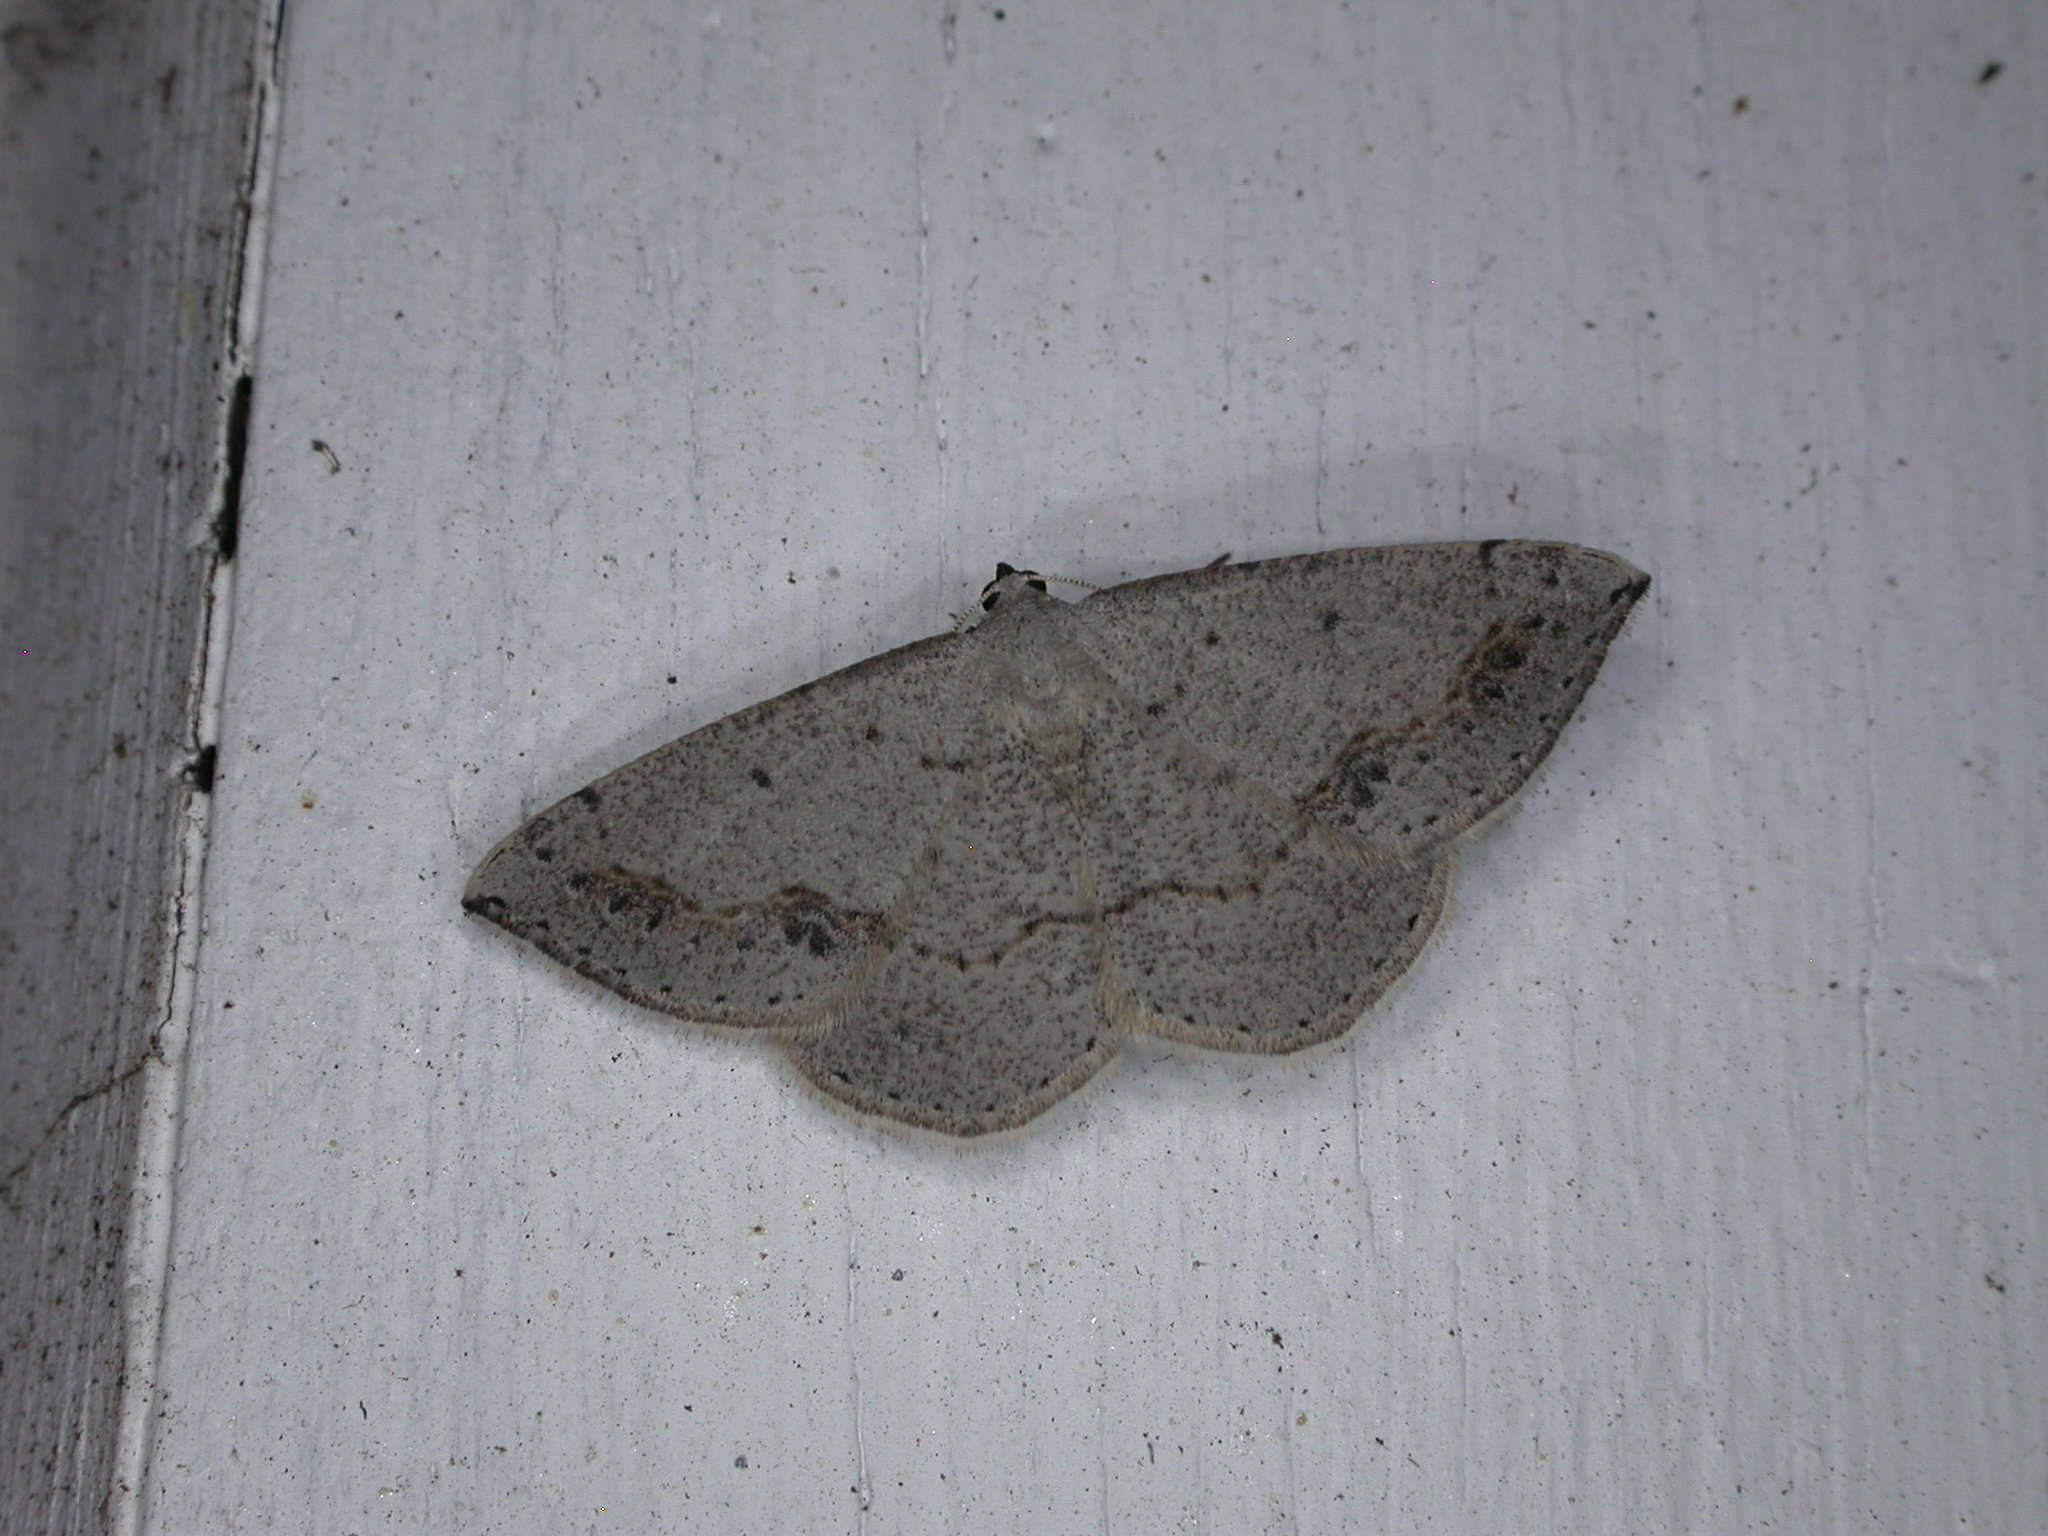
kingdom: Animalia
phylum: Arthropoda
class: Insecta
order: Lepidoptera
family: Geometridae
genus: Taxeotis
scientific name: Taxeotis intextata
